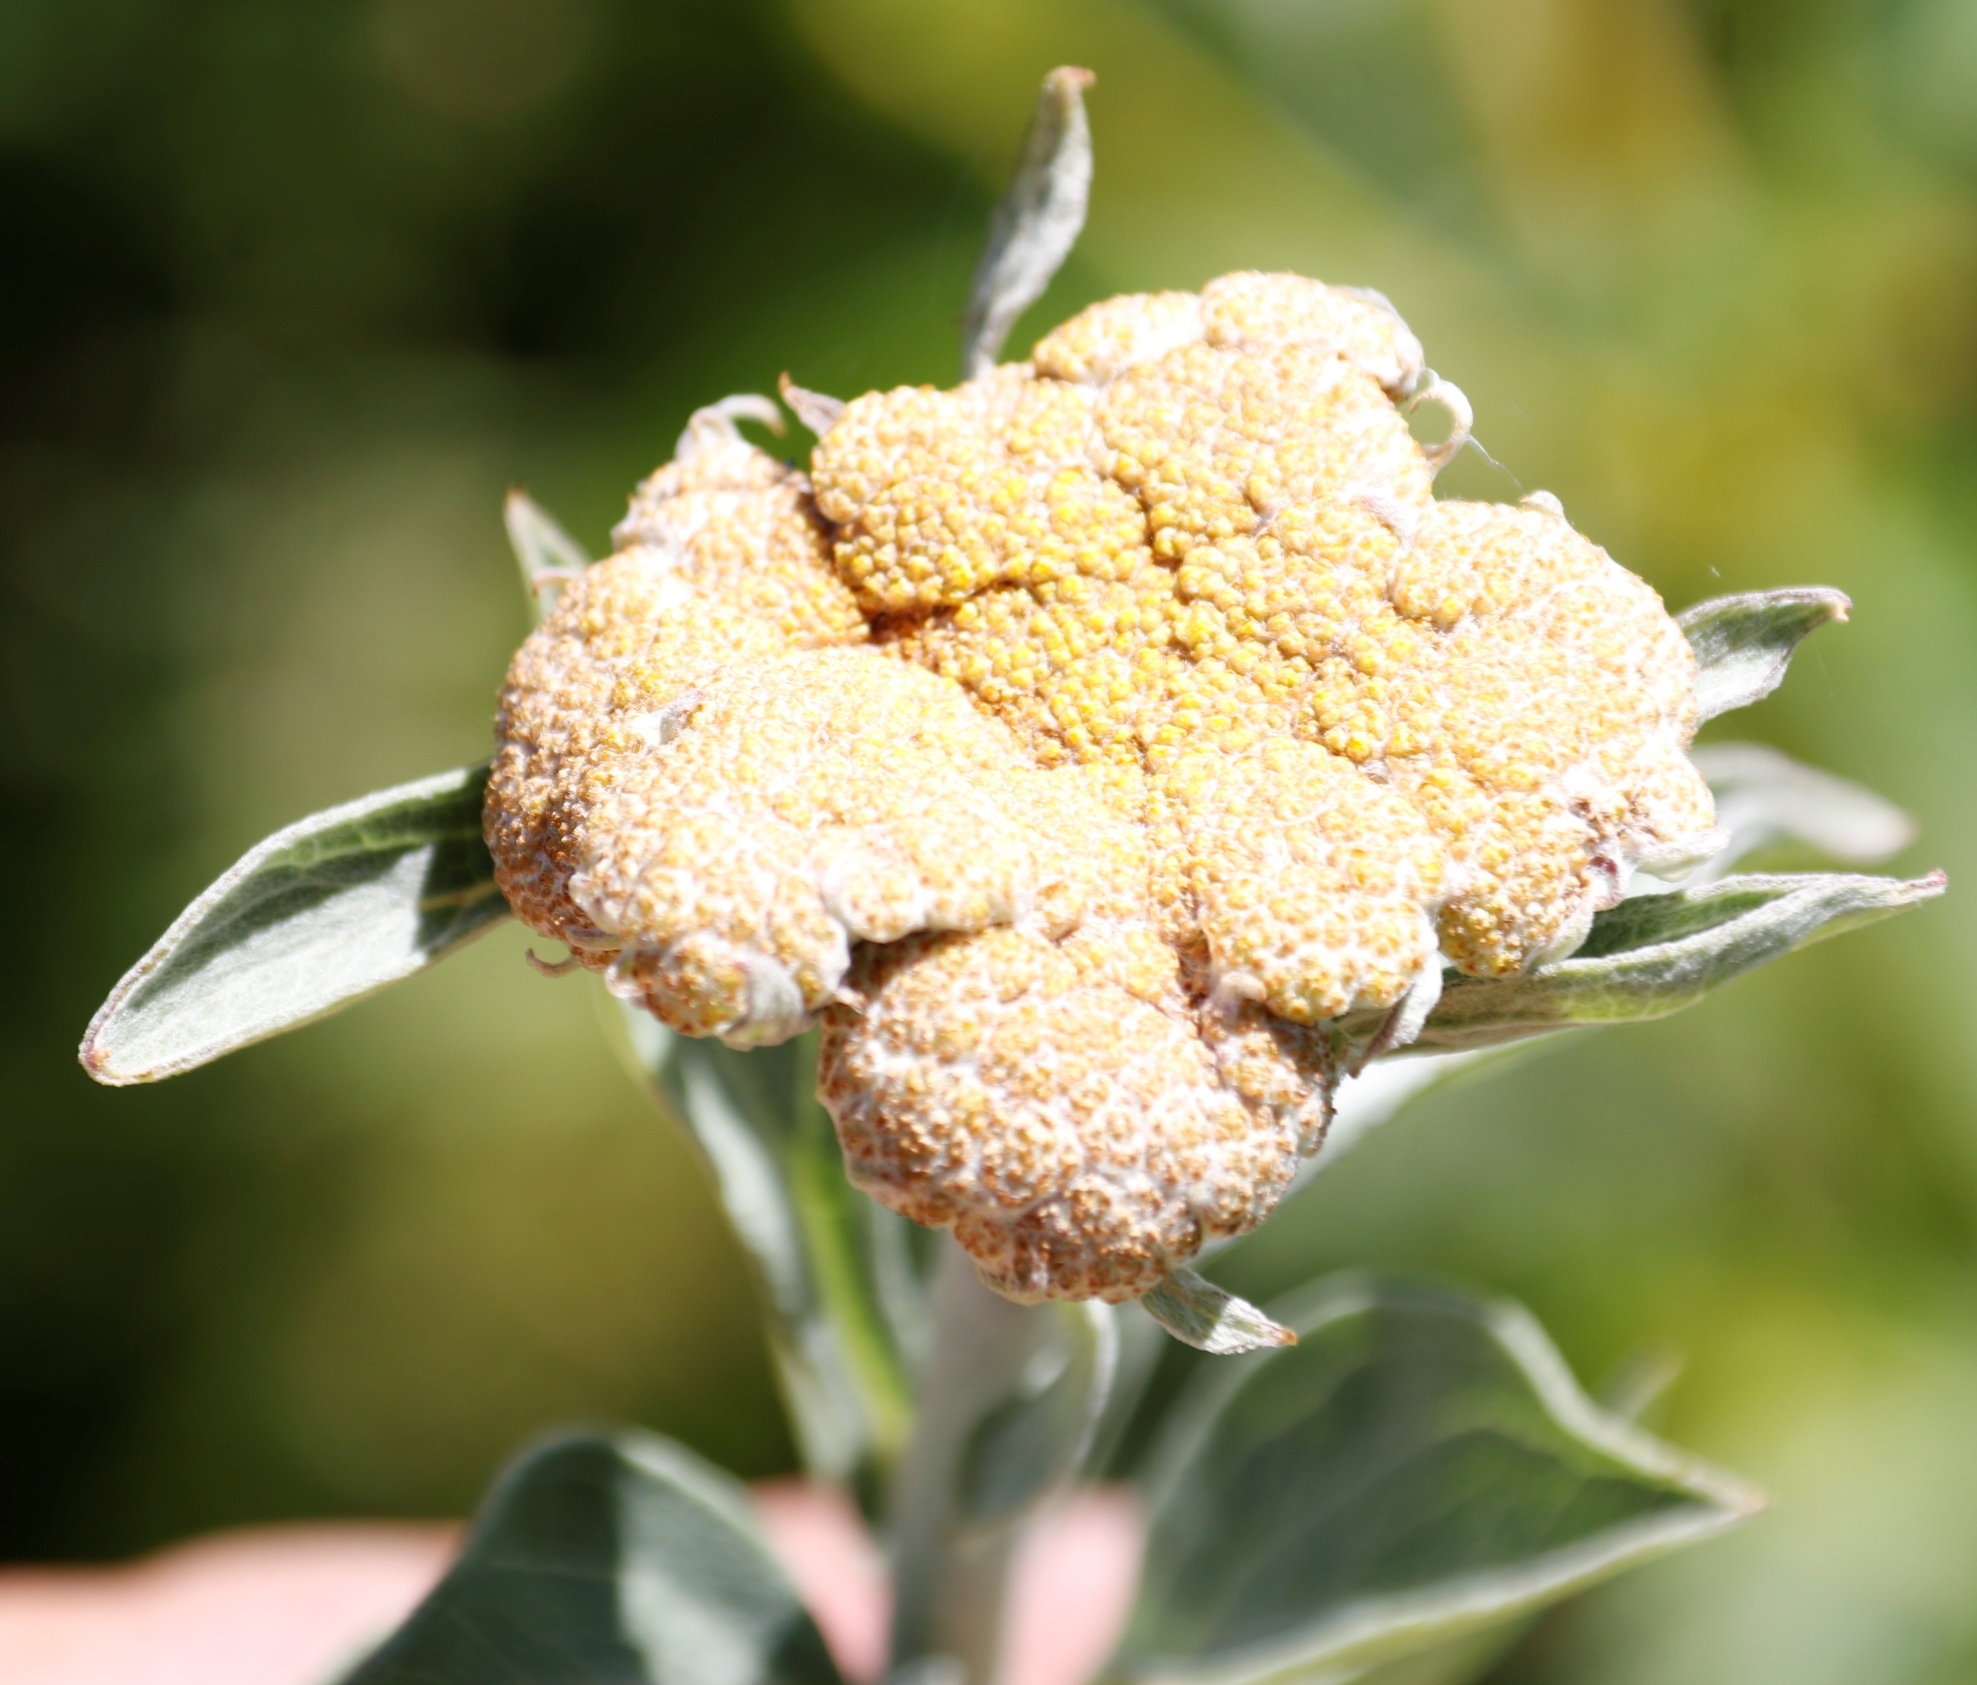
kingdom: Plantae
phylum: Tracheophyta
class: Magnoliopsida
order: Asterales
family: Asteraceae
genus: Helichrysum
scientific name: Helichrysum umbraculigerum
